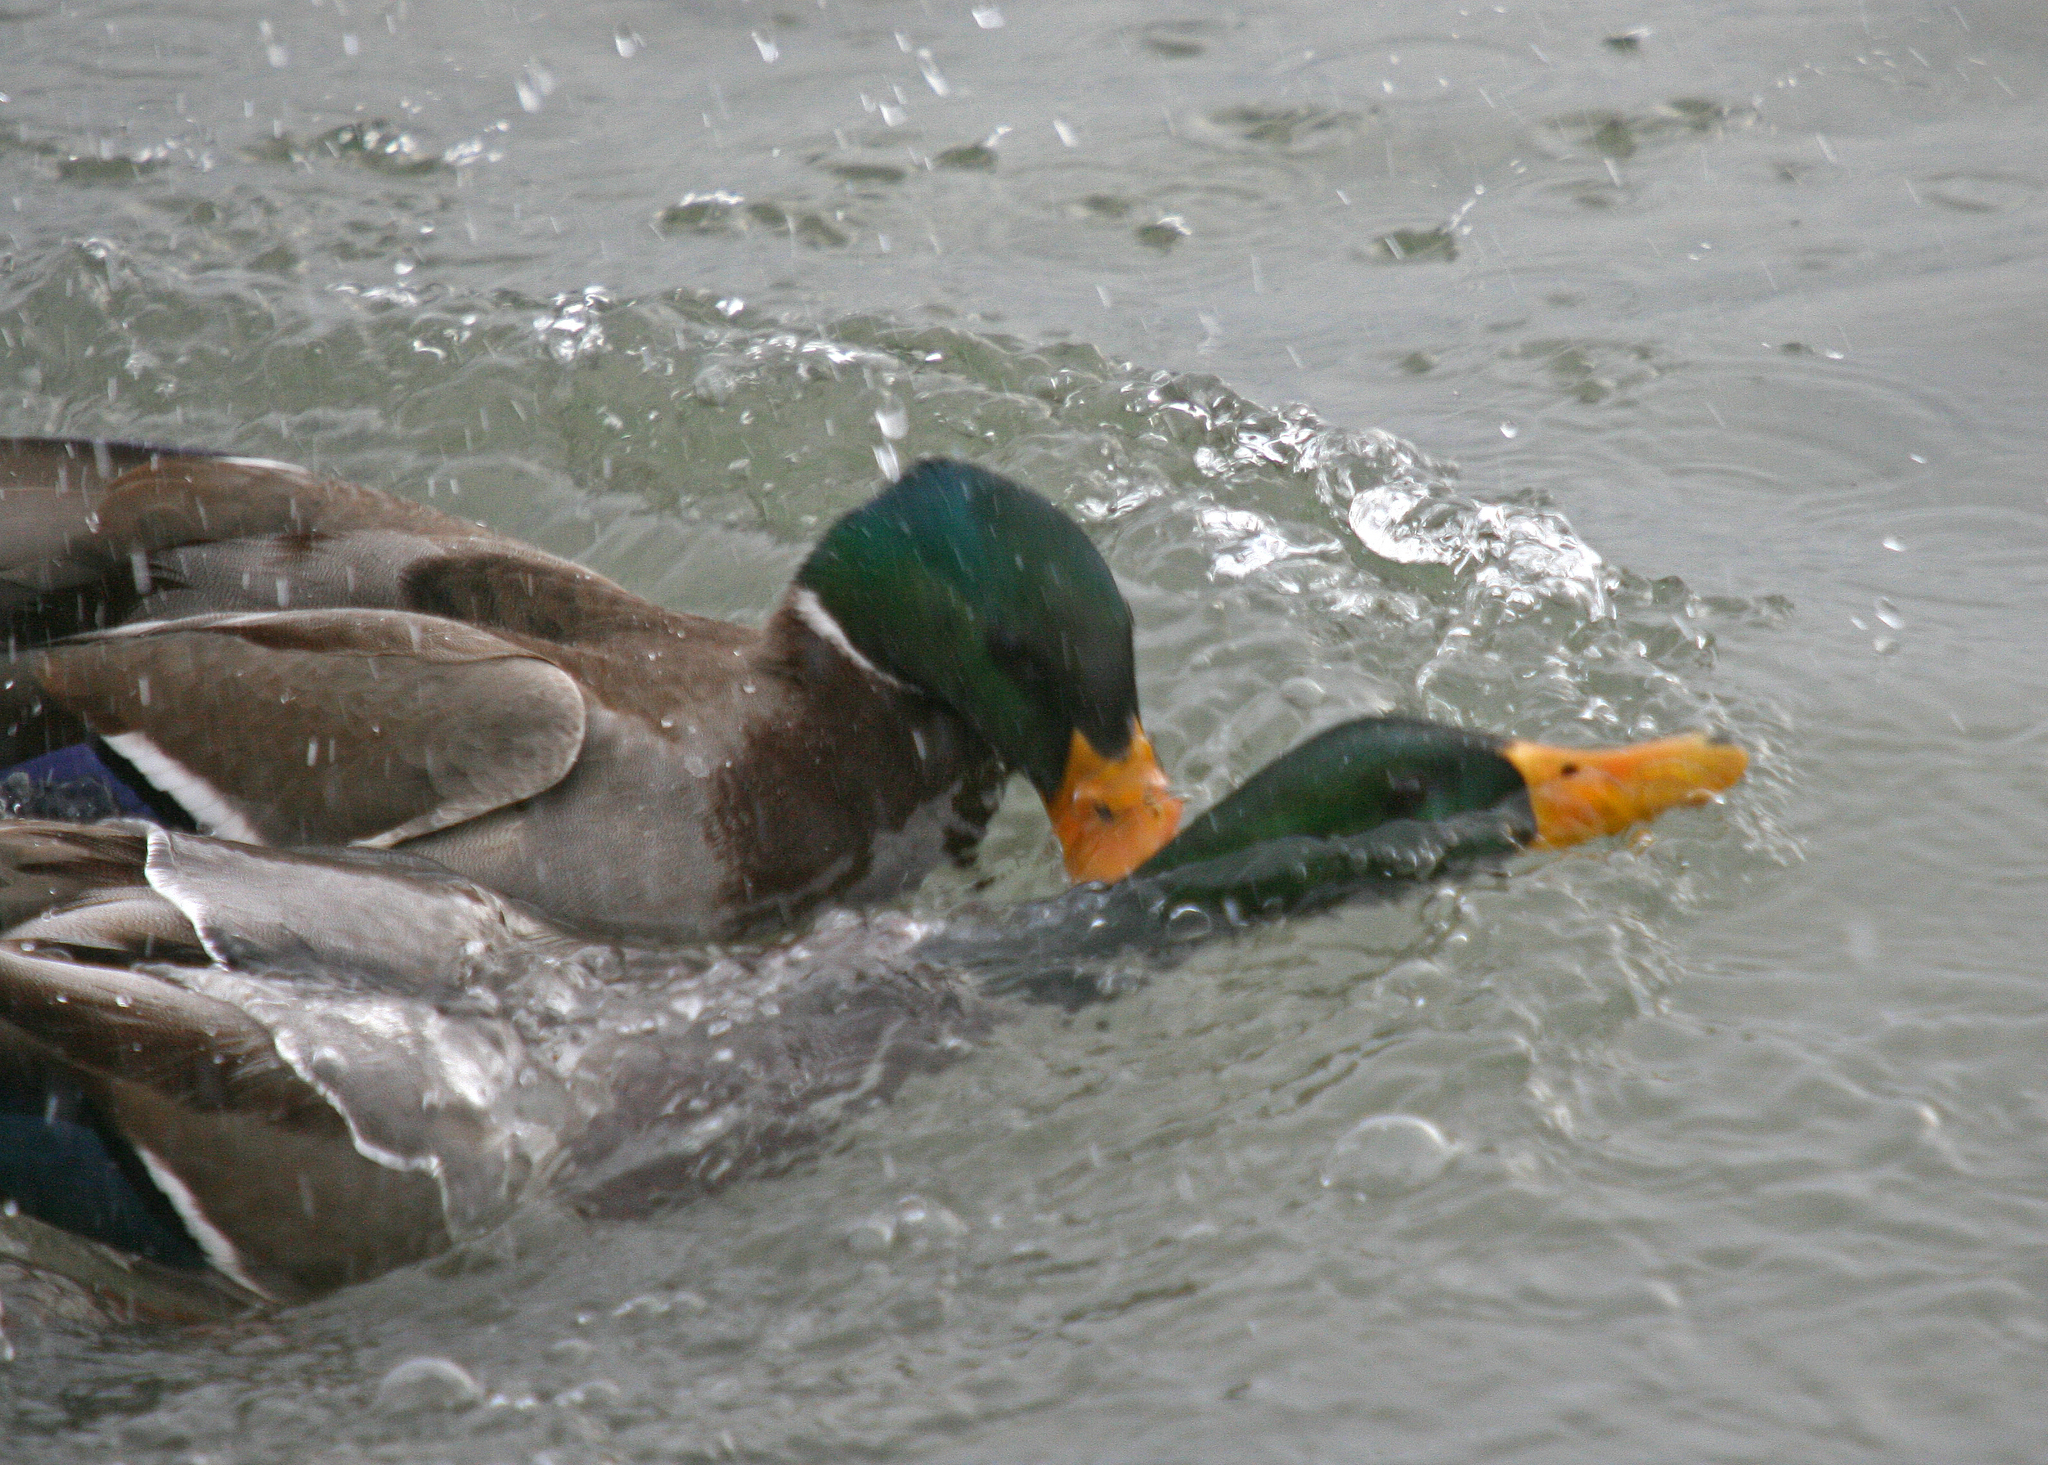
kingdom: Animalia
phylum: Chordata
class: Aves
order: Anseriformes
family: Anatidae
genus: Anas
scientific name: Anas platyrhynchos
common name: Mallard
